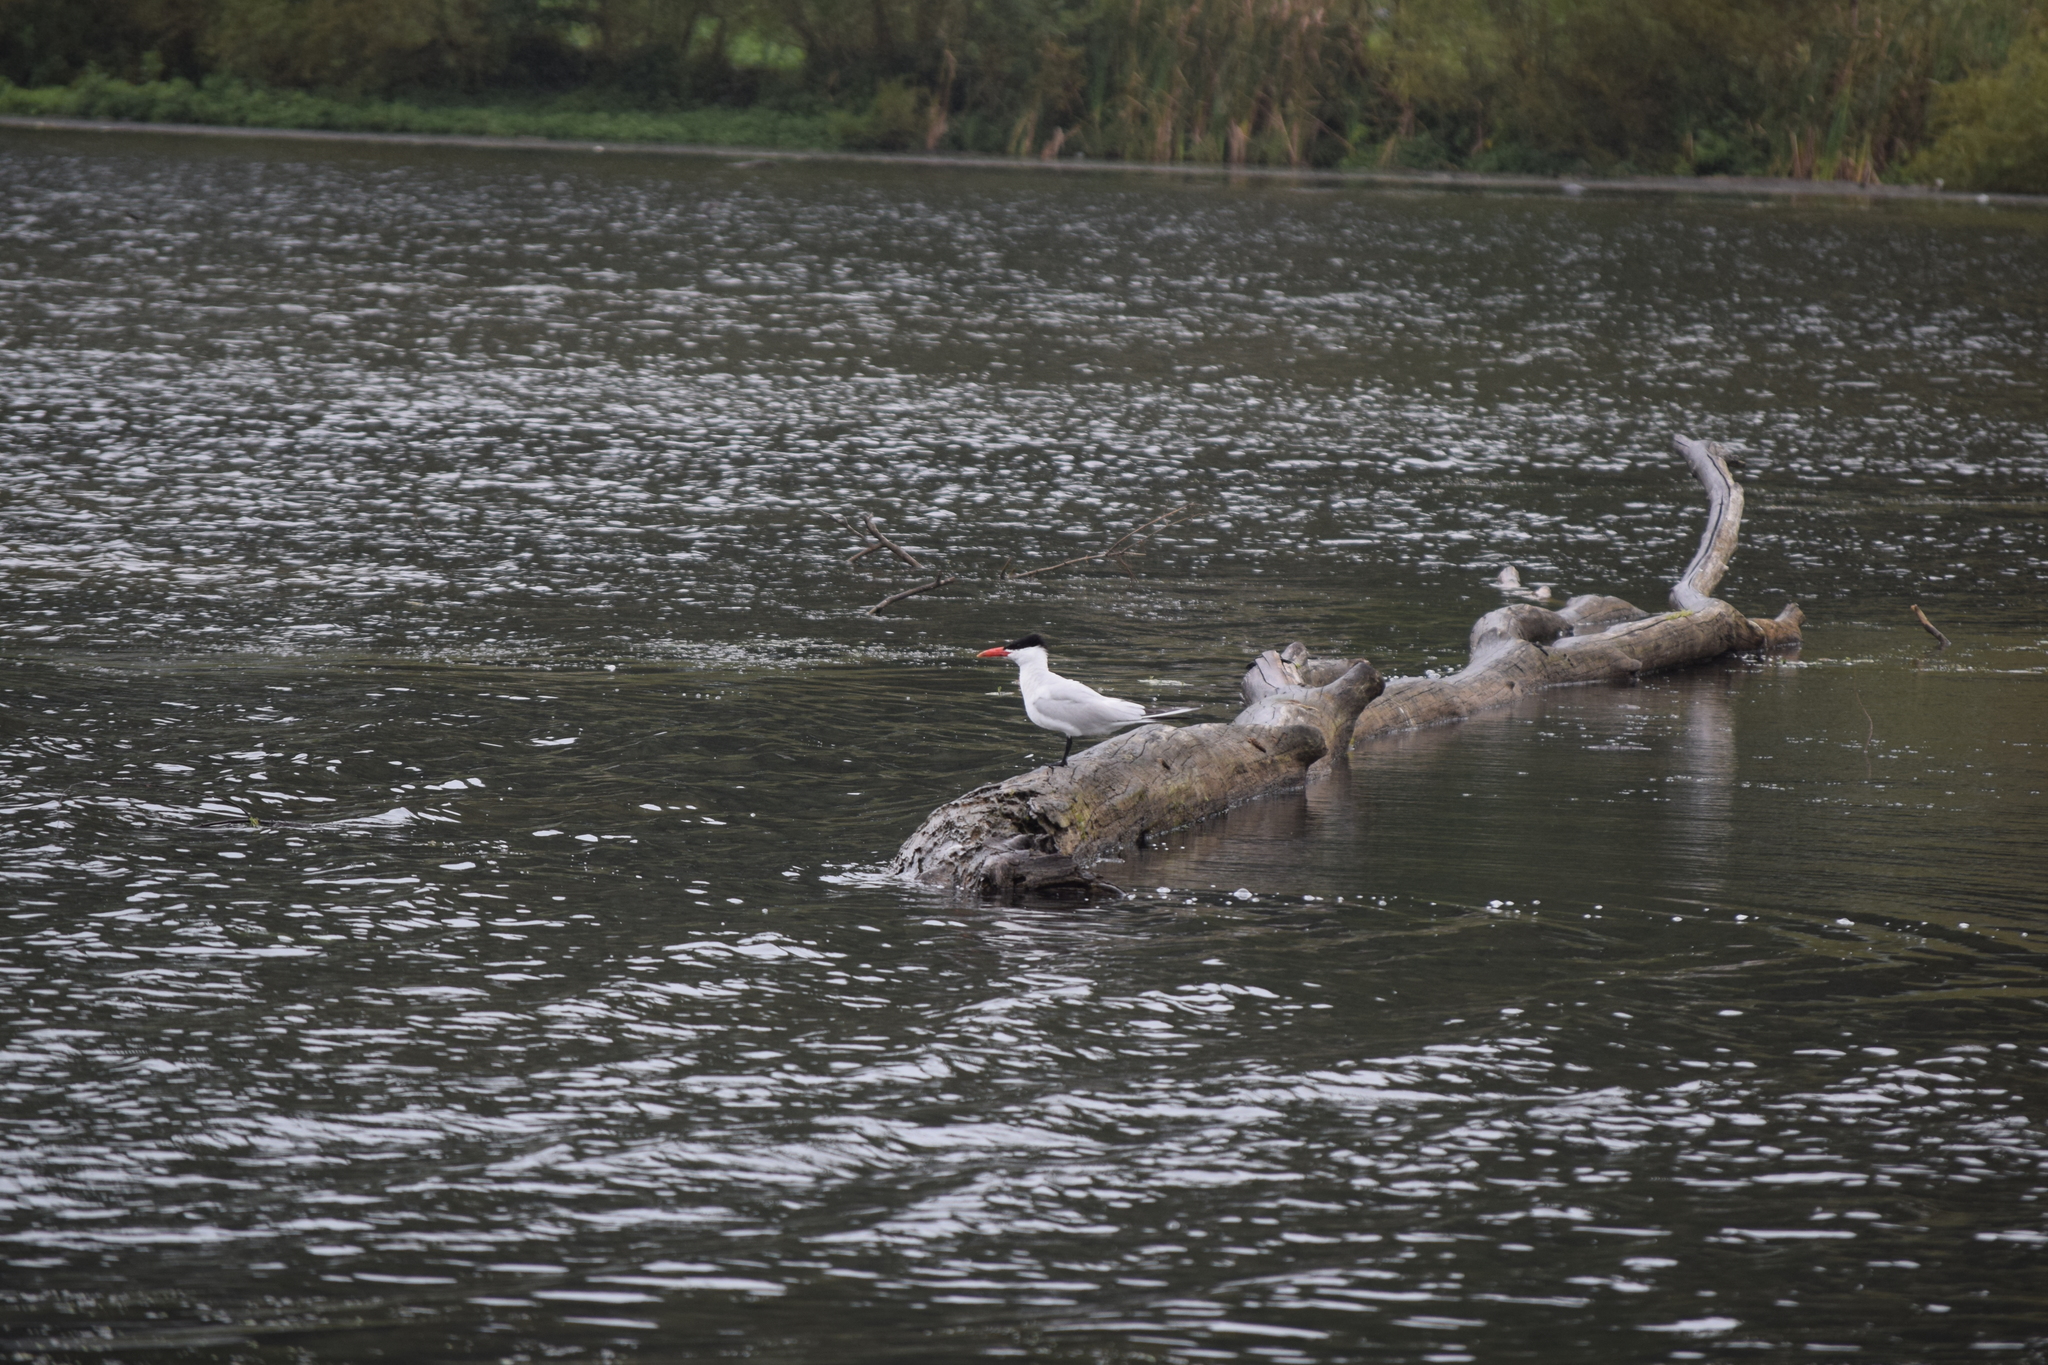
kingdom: Animalia
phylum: Chordata
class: Aves
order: Charadriiformes
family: Laridae
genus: Hydroprogne
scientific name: Hydroprogne caspia
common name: Caspian tern
